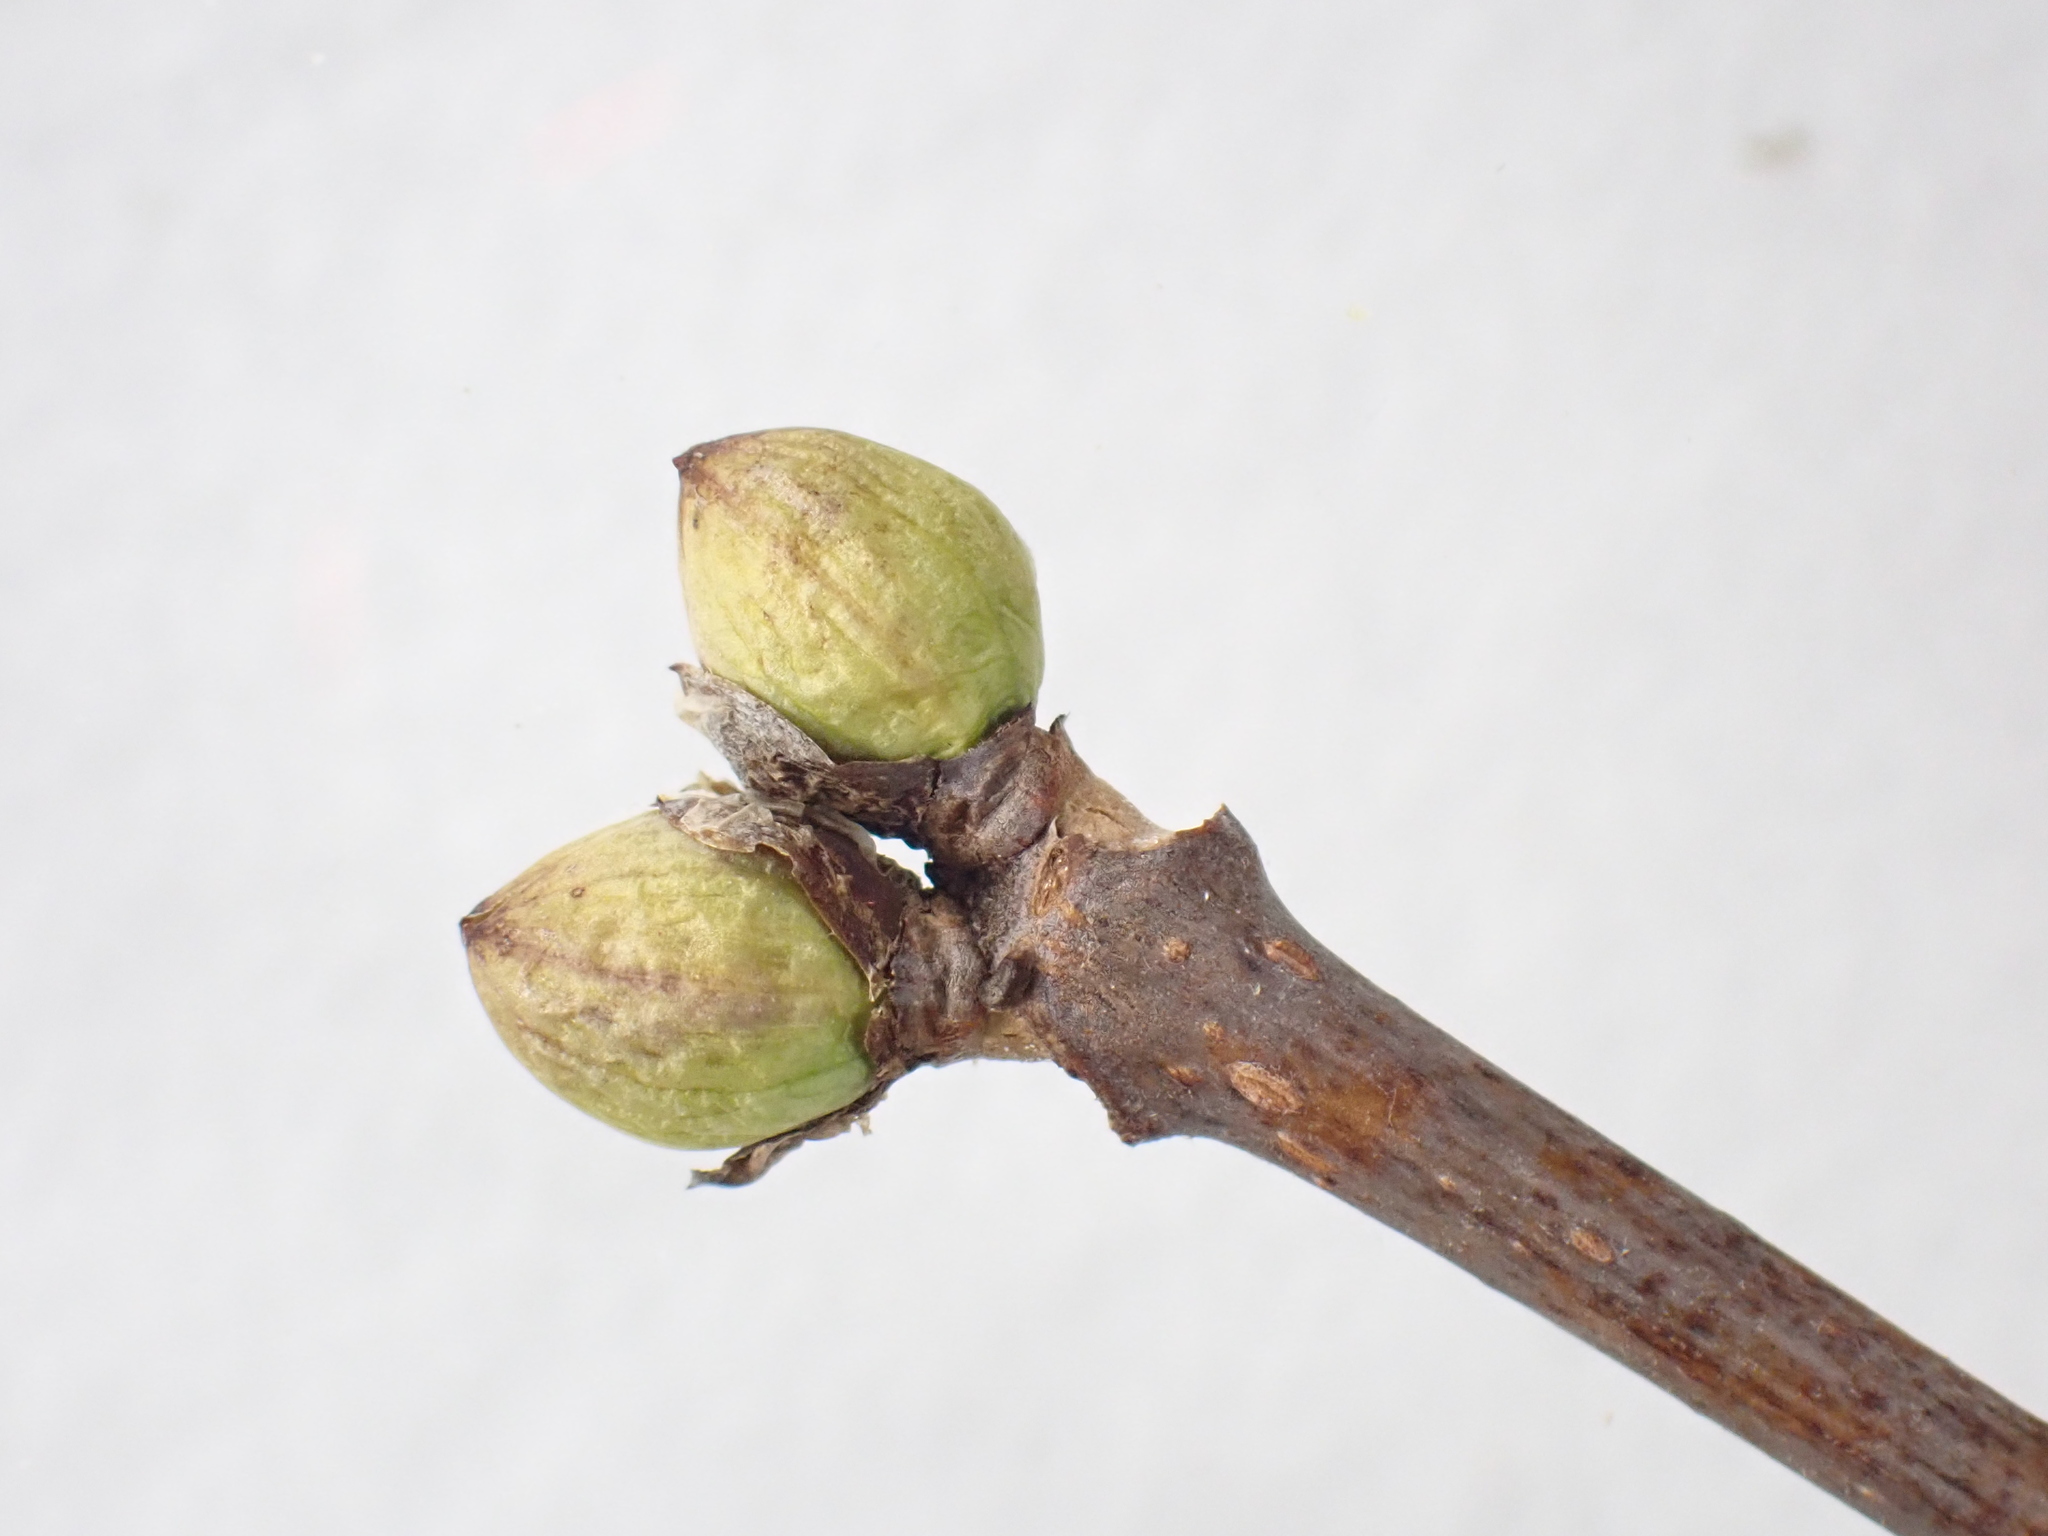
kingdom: Plantae
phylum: Tracheophyta
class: Magnoliopsida
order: Dipsacales
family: Viburnaceae
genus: Sambucus
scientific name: Sambucus racemosa
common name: Red-berried elder
